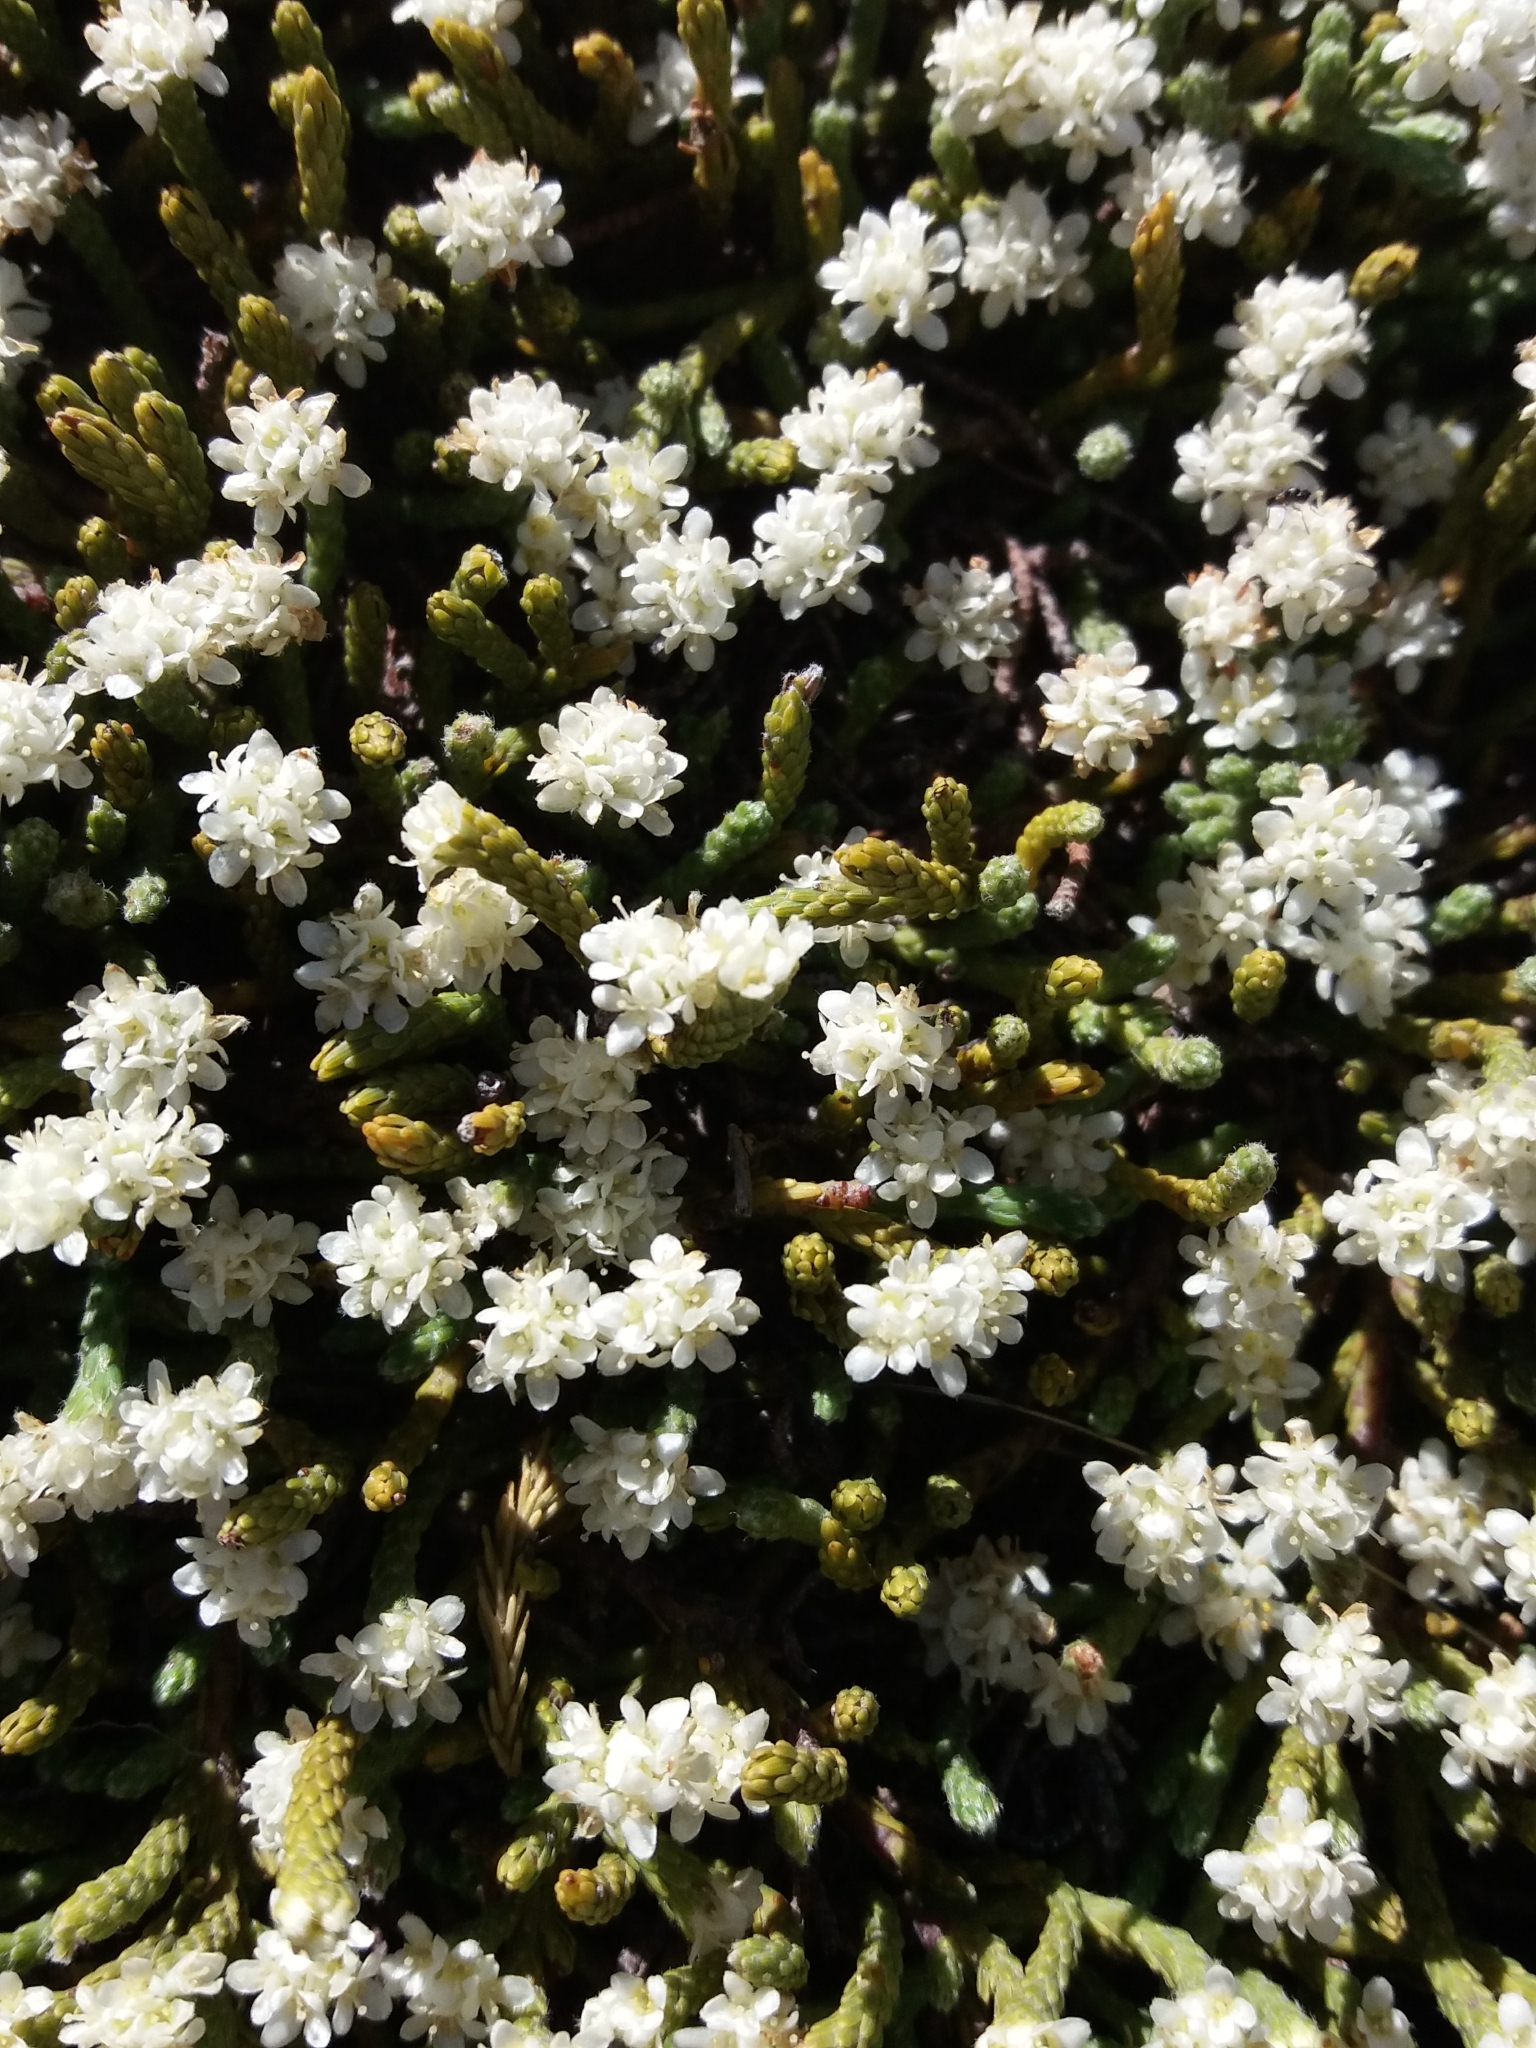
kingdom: Plantae
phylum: Tracheophyta
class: Magnoliopsida
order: Malvales
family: Thymelaeaceae
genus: Kelleria
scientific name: Kelleria dieffenbachii
